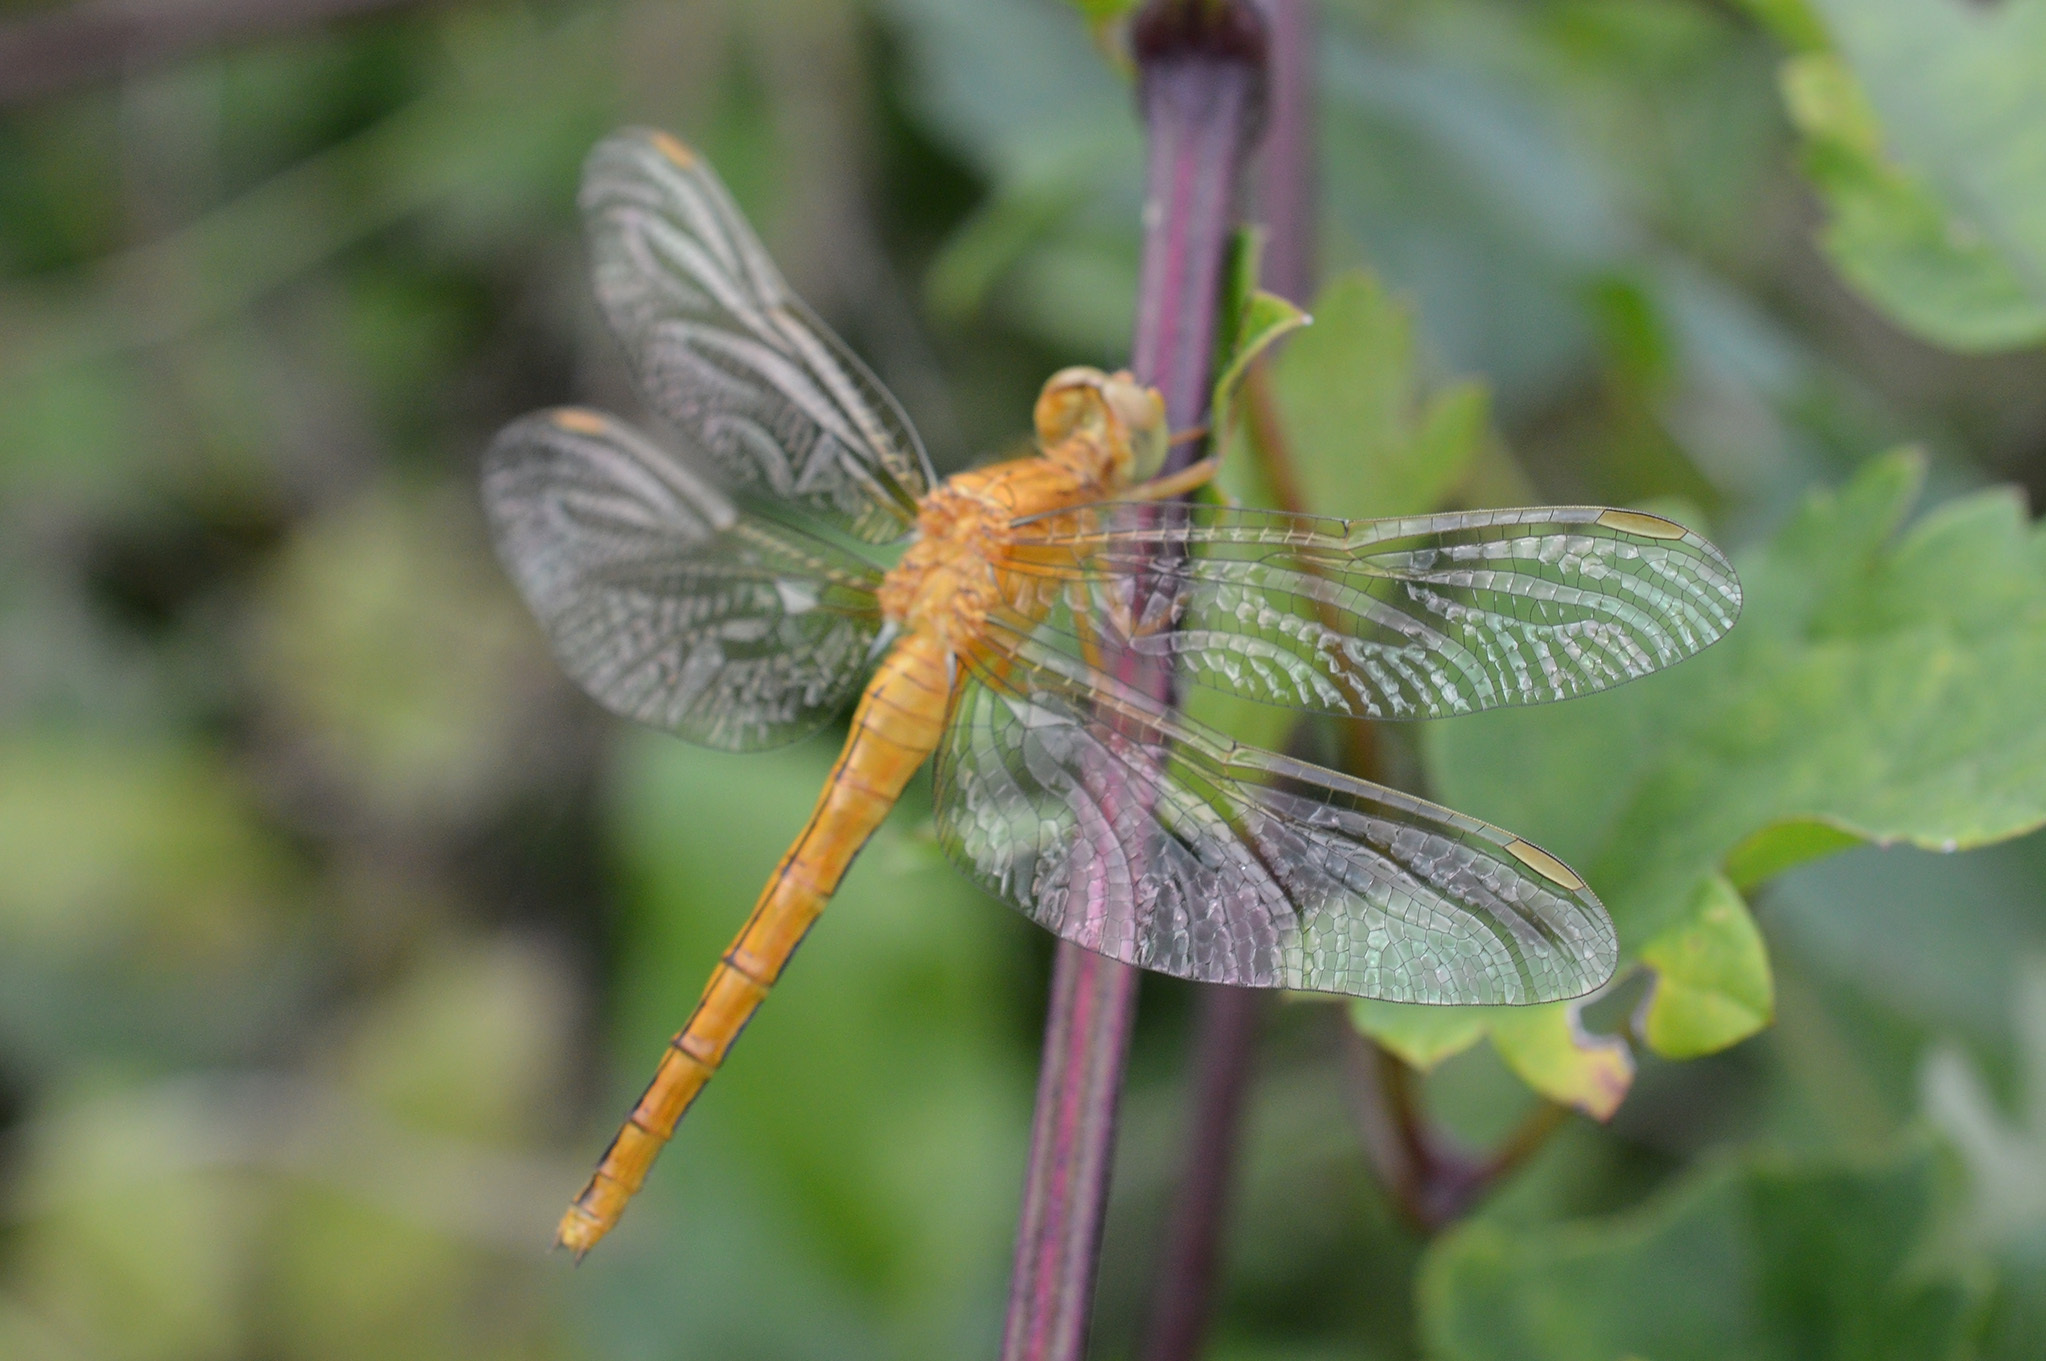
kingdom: Animalia
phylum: Arthropoda
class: Insecta
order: Odonata
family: Libellulidae
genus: Orthetrum
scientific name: Orthetrum coerulescens
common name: Keeled skimmer
